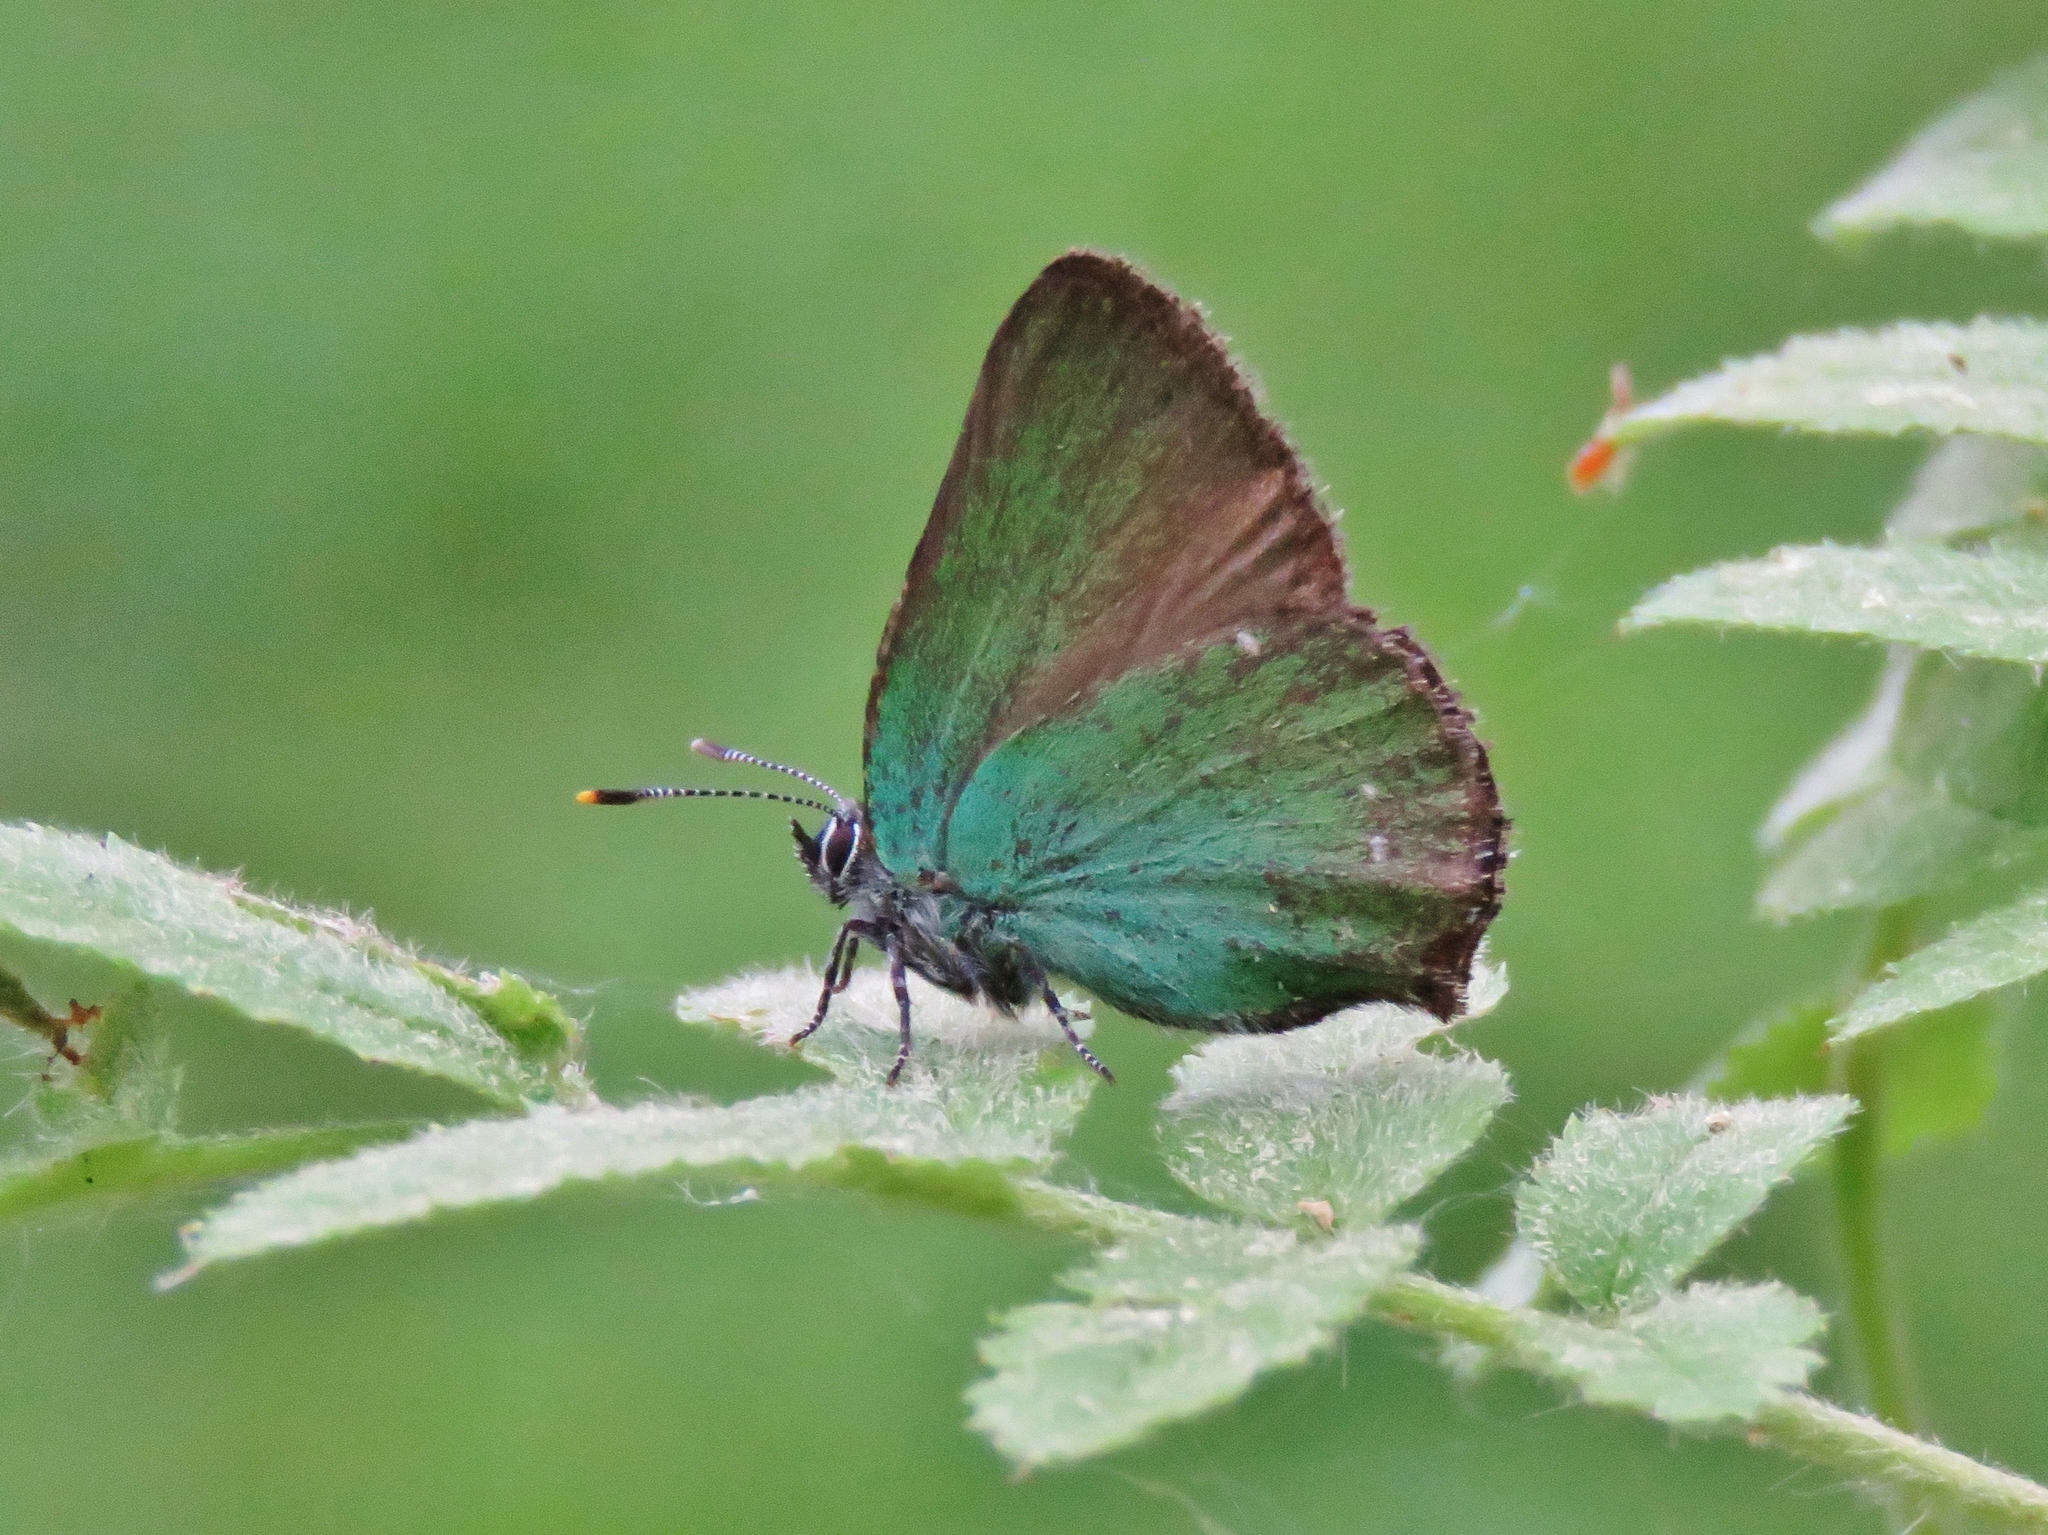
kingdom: Animalia
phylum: Arthropoda
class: Insecta
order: Lepidoptera
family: Lycaenidae
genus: Callophrys
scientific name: Callophrys rubi
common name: Green hairstreak
